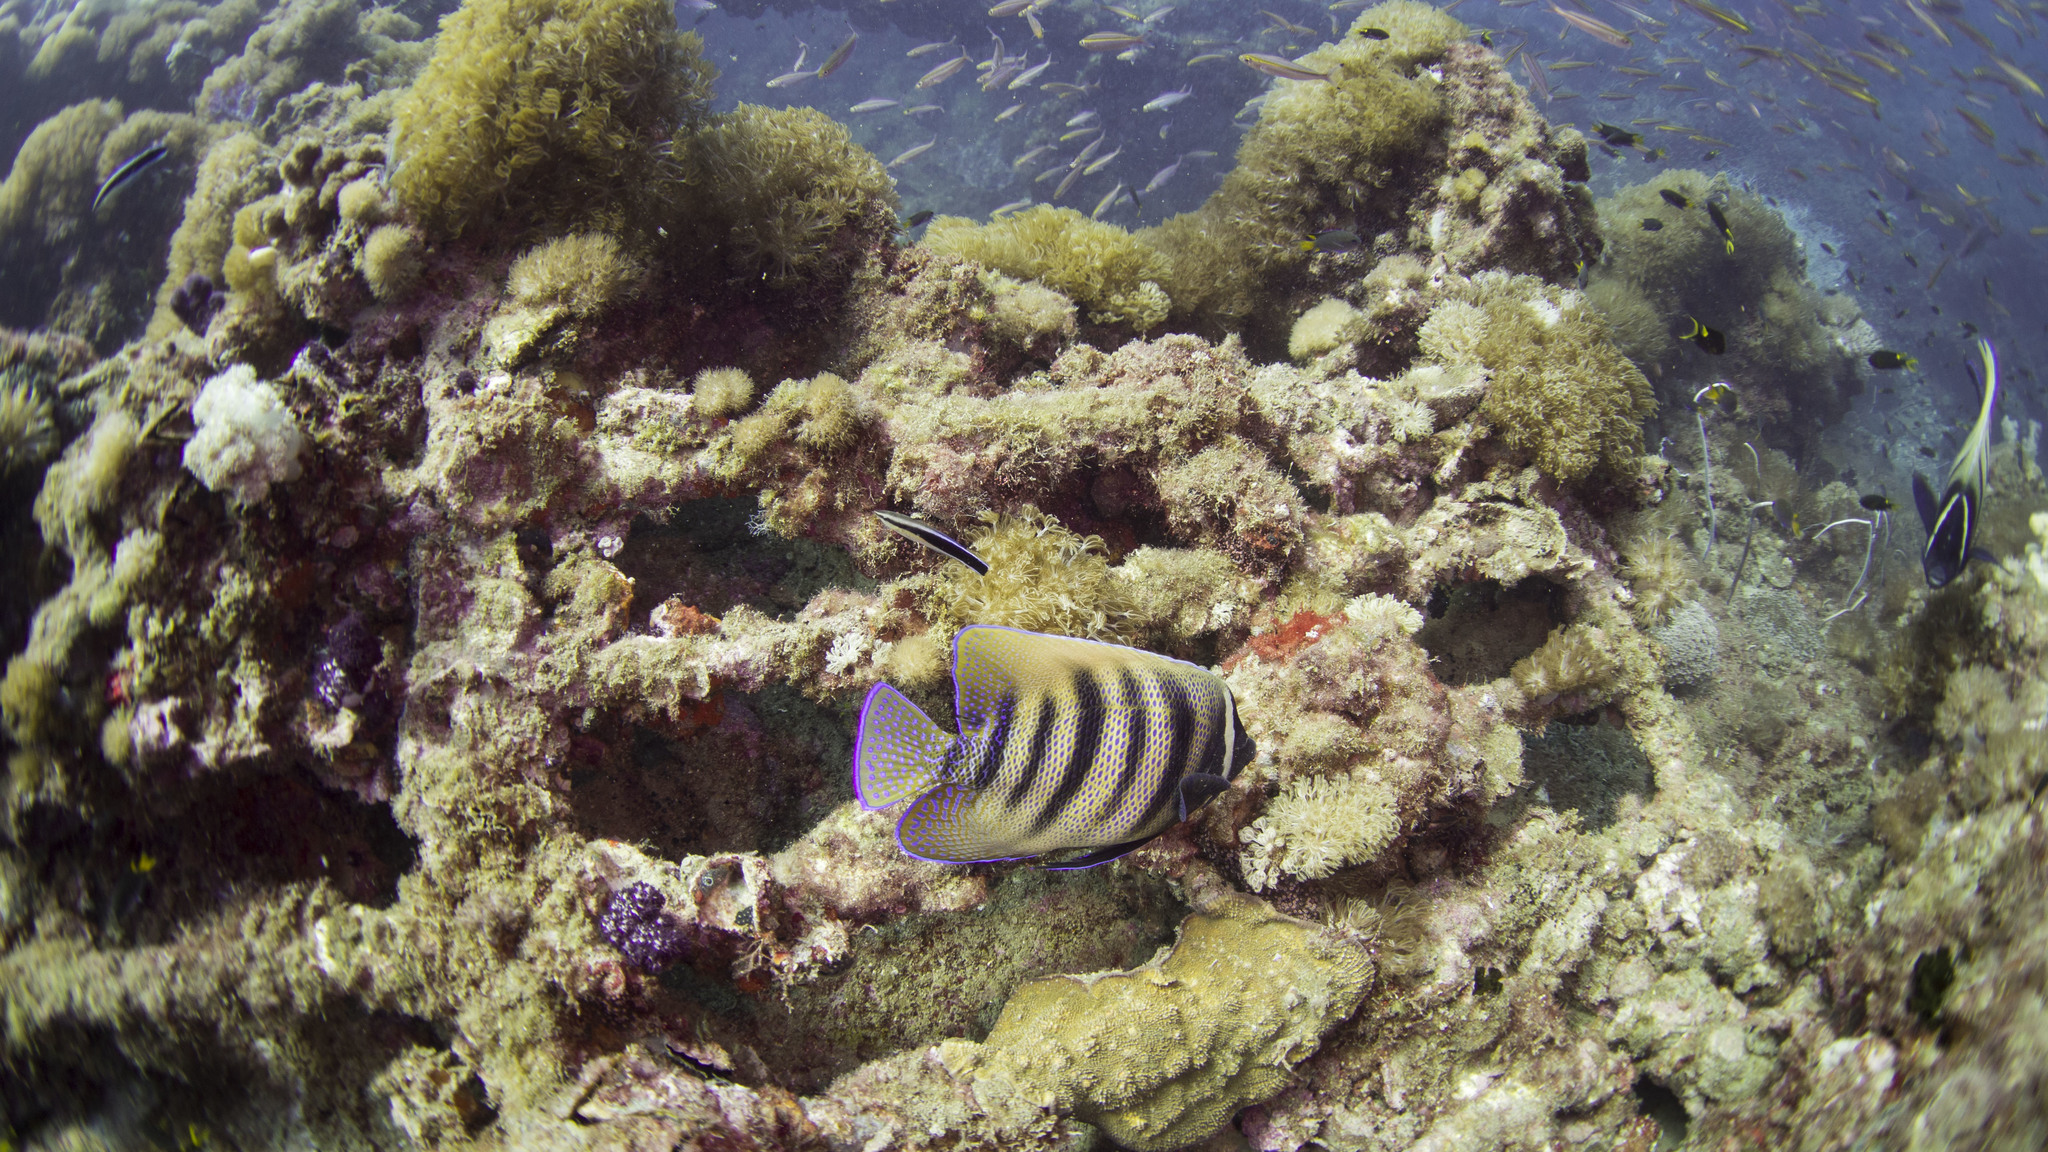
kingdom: Animalia
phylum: Chordata
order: Perciformes
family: Pomacanthidae
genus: Pomacanthus
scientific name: Pomacanthus sexstriatus
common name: Six-banded angelfish
